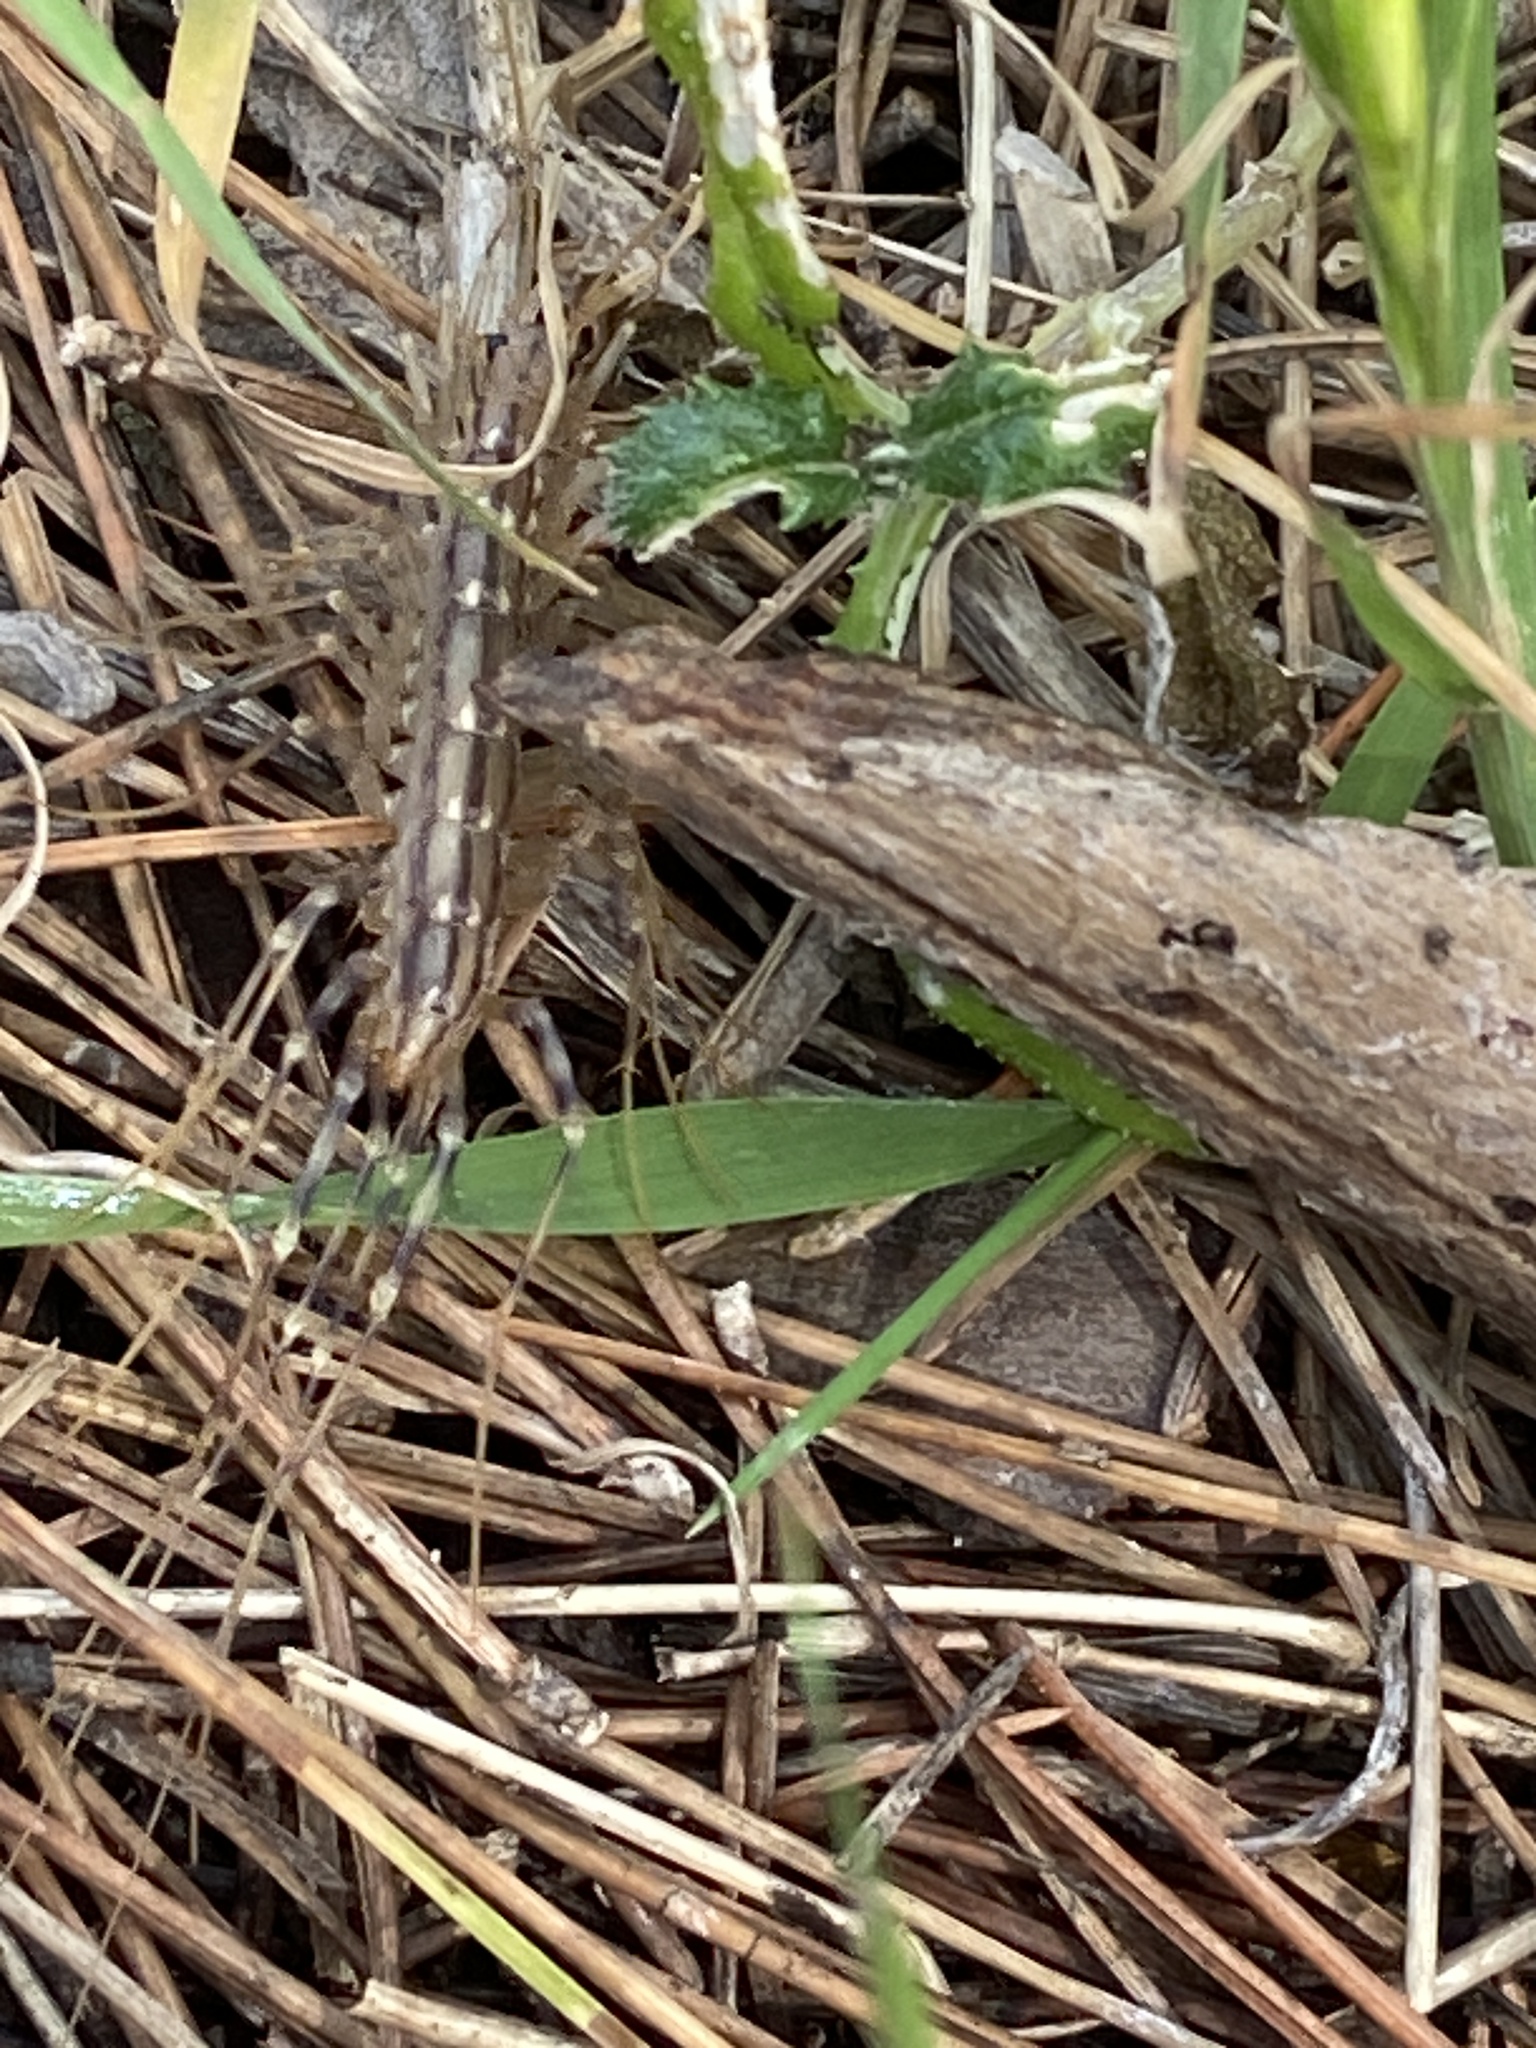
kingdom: Animalia
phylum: Arthropoda
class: Chilopoda
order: Scutigeromorpha
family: Scutigeridae
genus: Scutigera
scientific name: Scutigera coleoptrata
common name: House centipede
